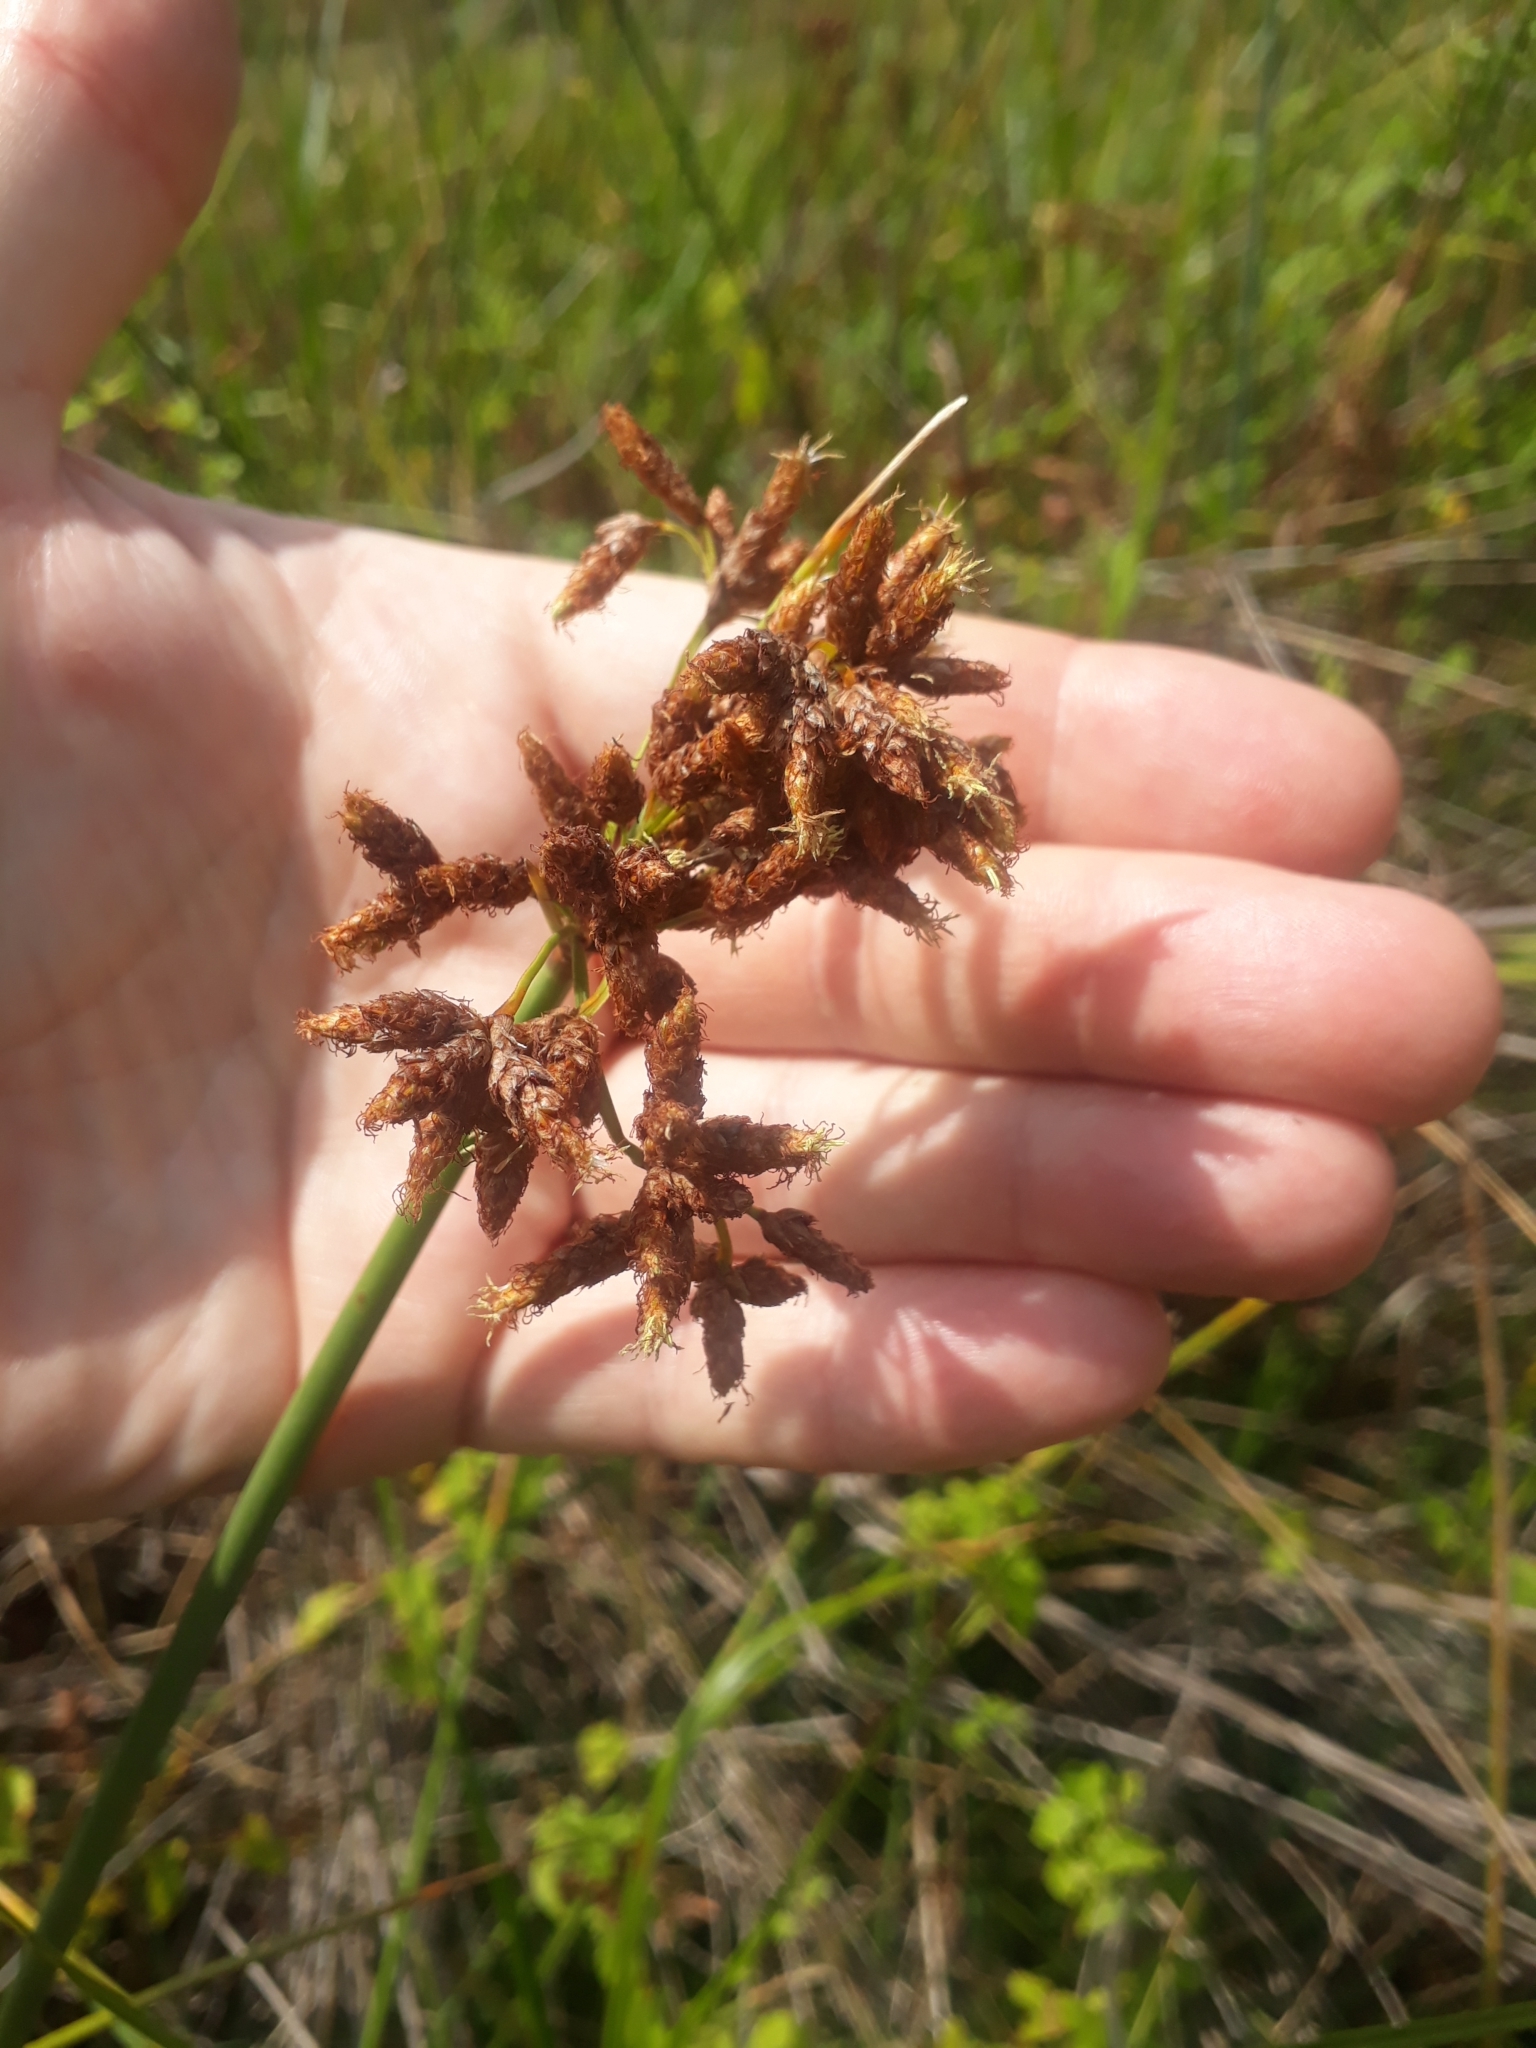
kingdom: Plantae
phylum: Tracheophyta
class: Liliopsida
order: Poales
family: Cyperaceae
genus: Schoenoplectus
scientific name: Schoenoplectus tabernaemontani
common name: Grey club-rush
